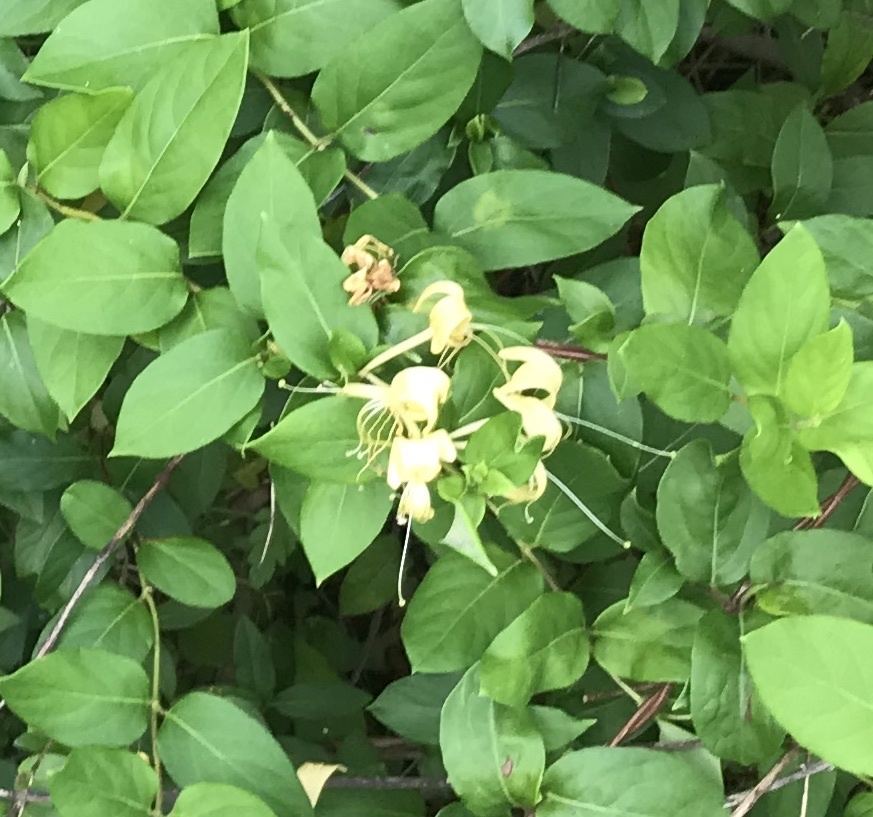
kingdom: Plantae
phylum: Tracheophyta
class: Magnoliopsida
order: Dipsacales
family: Caprifoliaceae
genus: Lonicera
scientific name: Lonicera japonica
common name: Japanese honeysuckle
